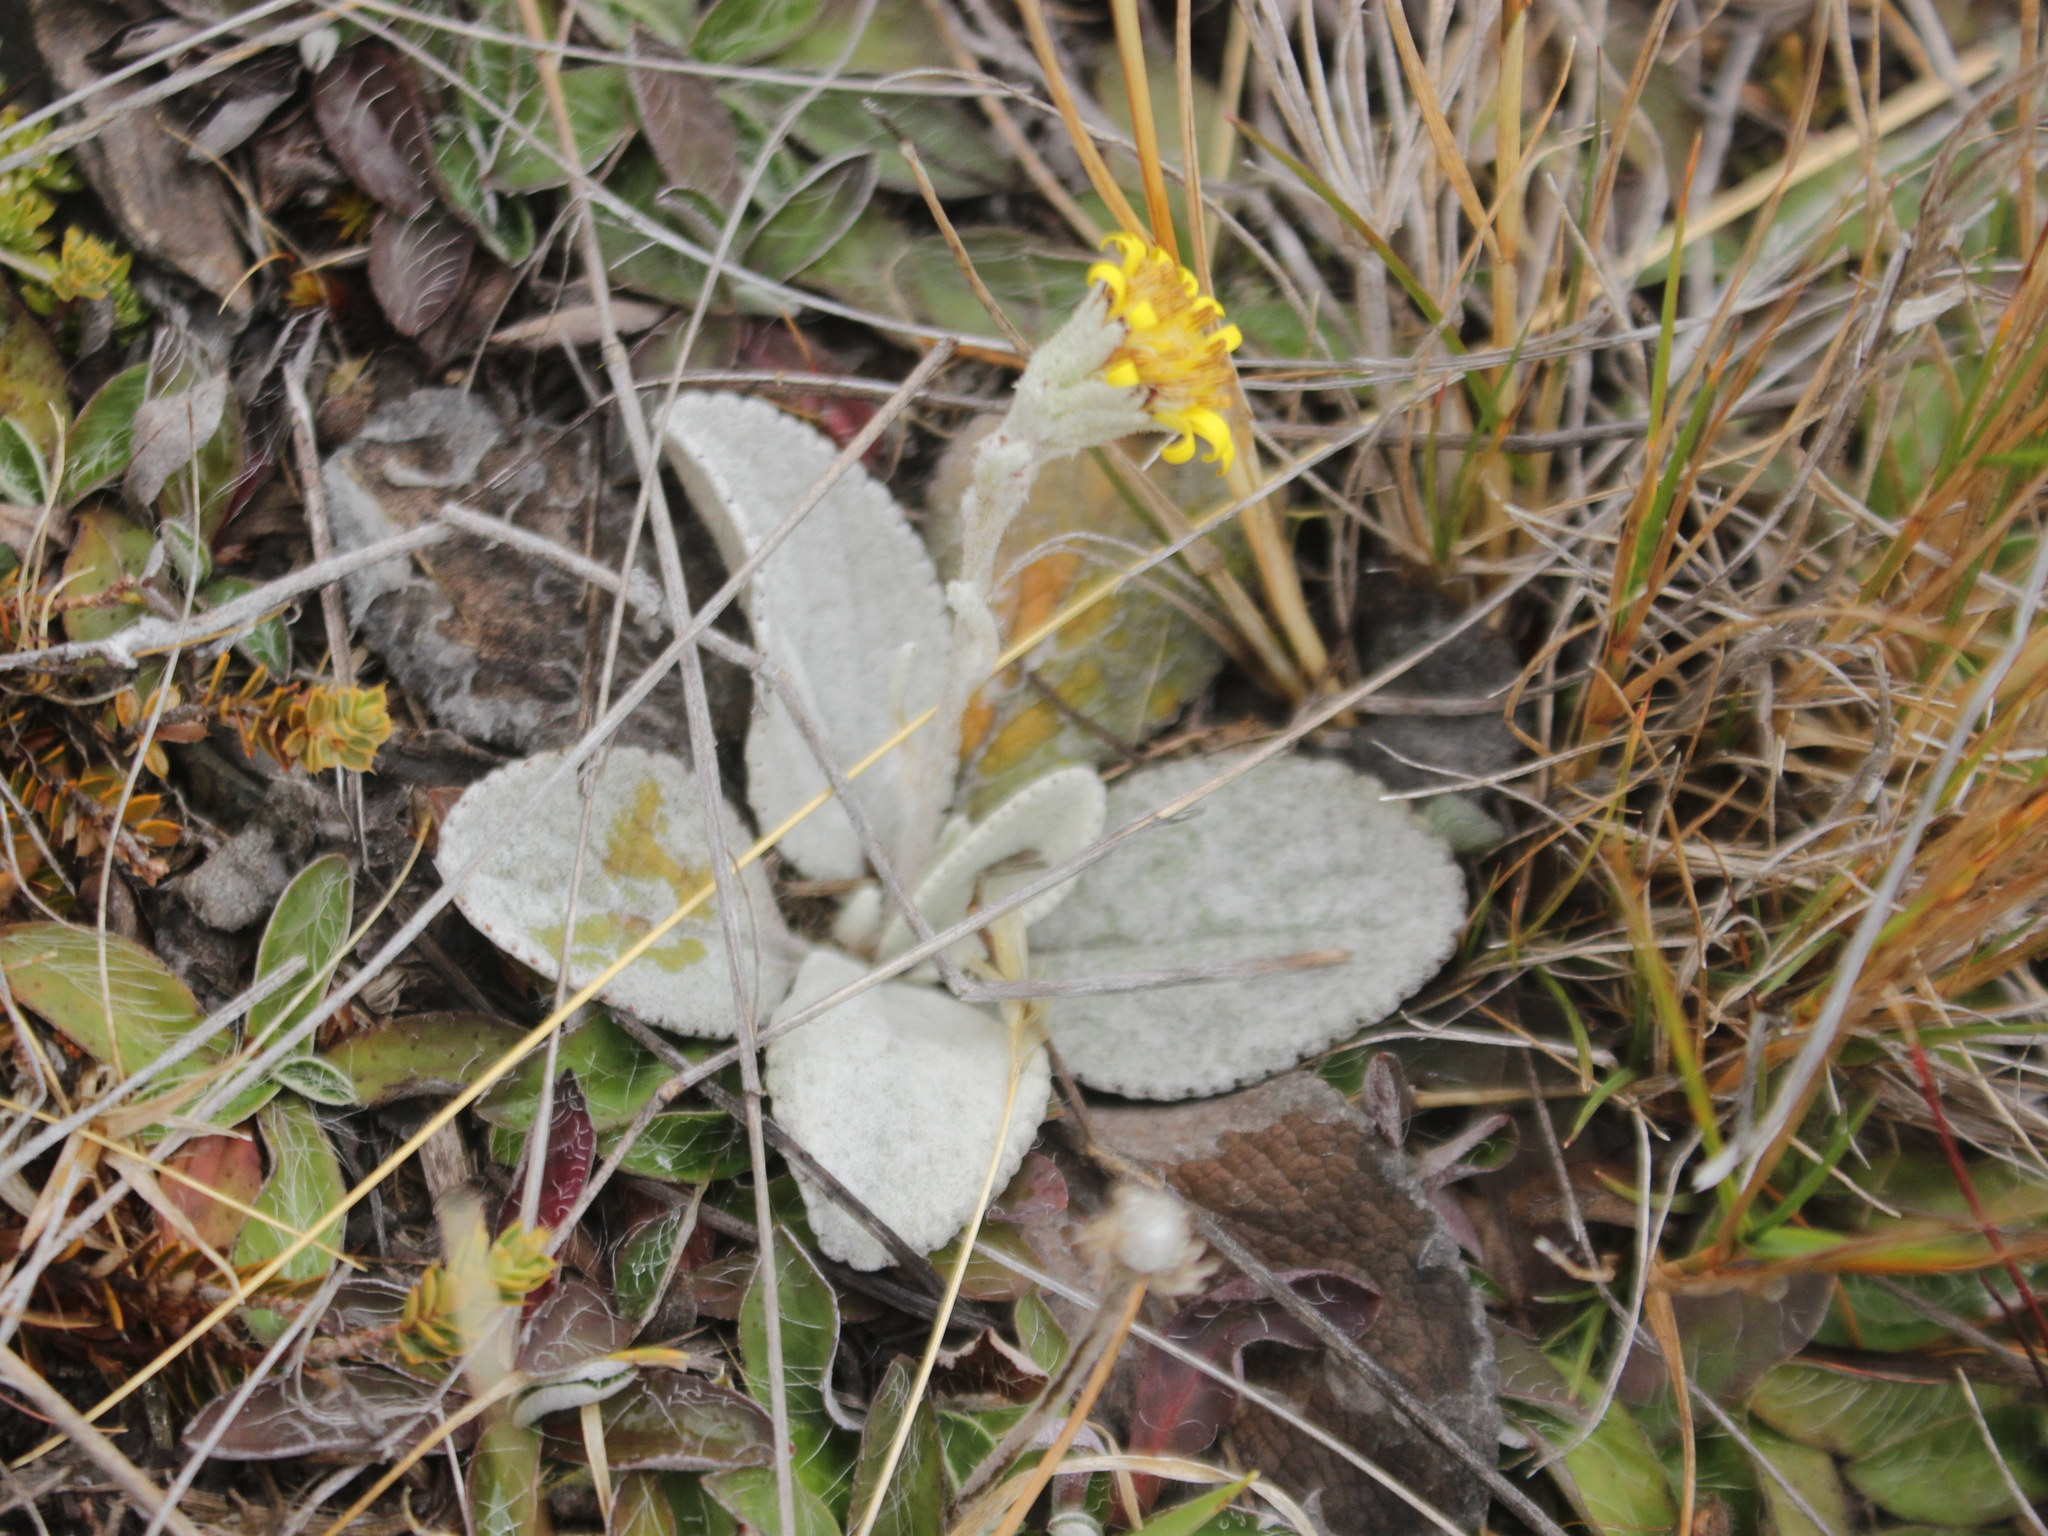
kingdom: Plantae
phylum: Tracheophyta
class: Magnoliopsida
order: Asterales
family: Asteraceae
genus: Brachyglottis
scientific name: Brachyglottis haastii
